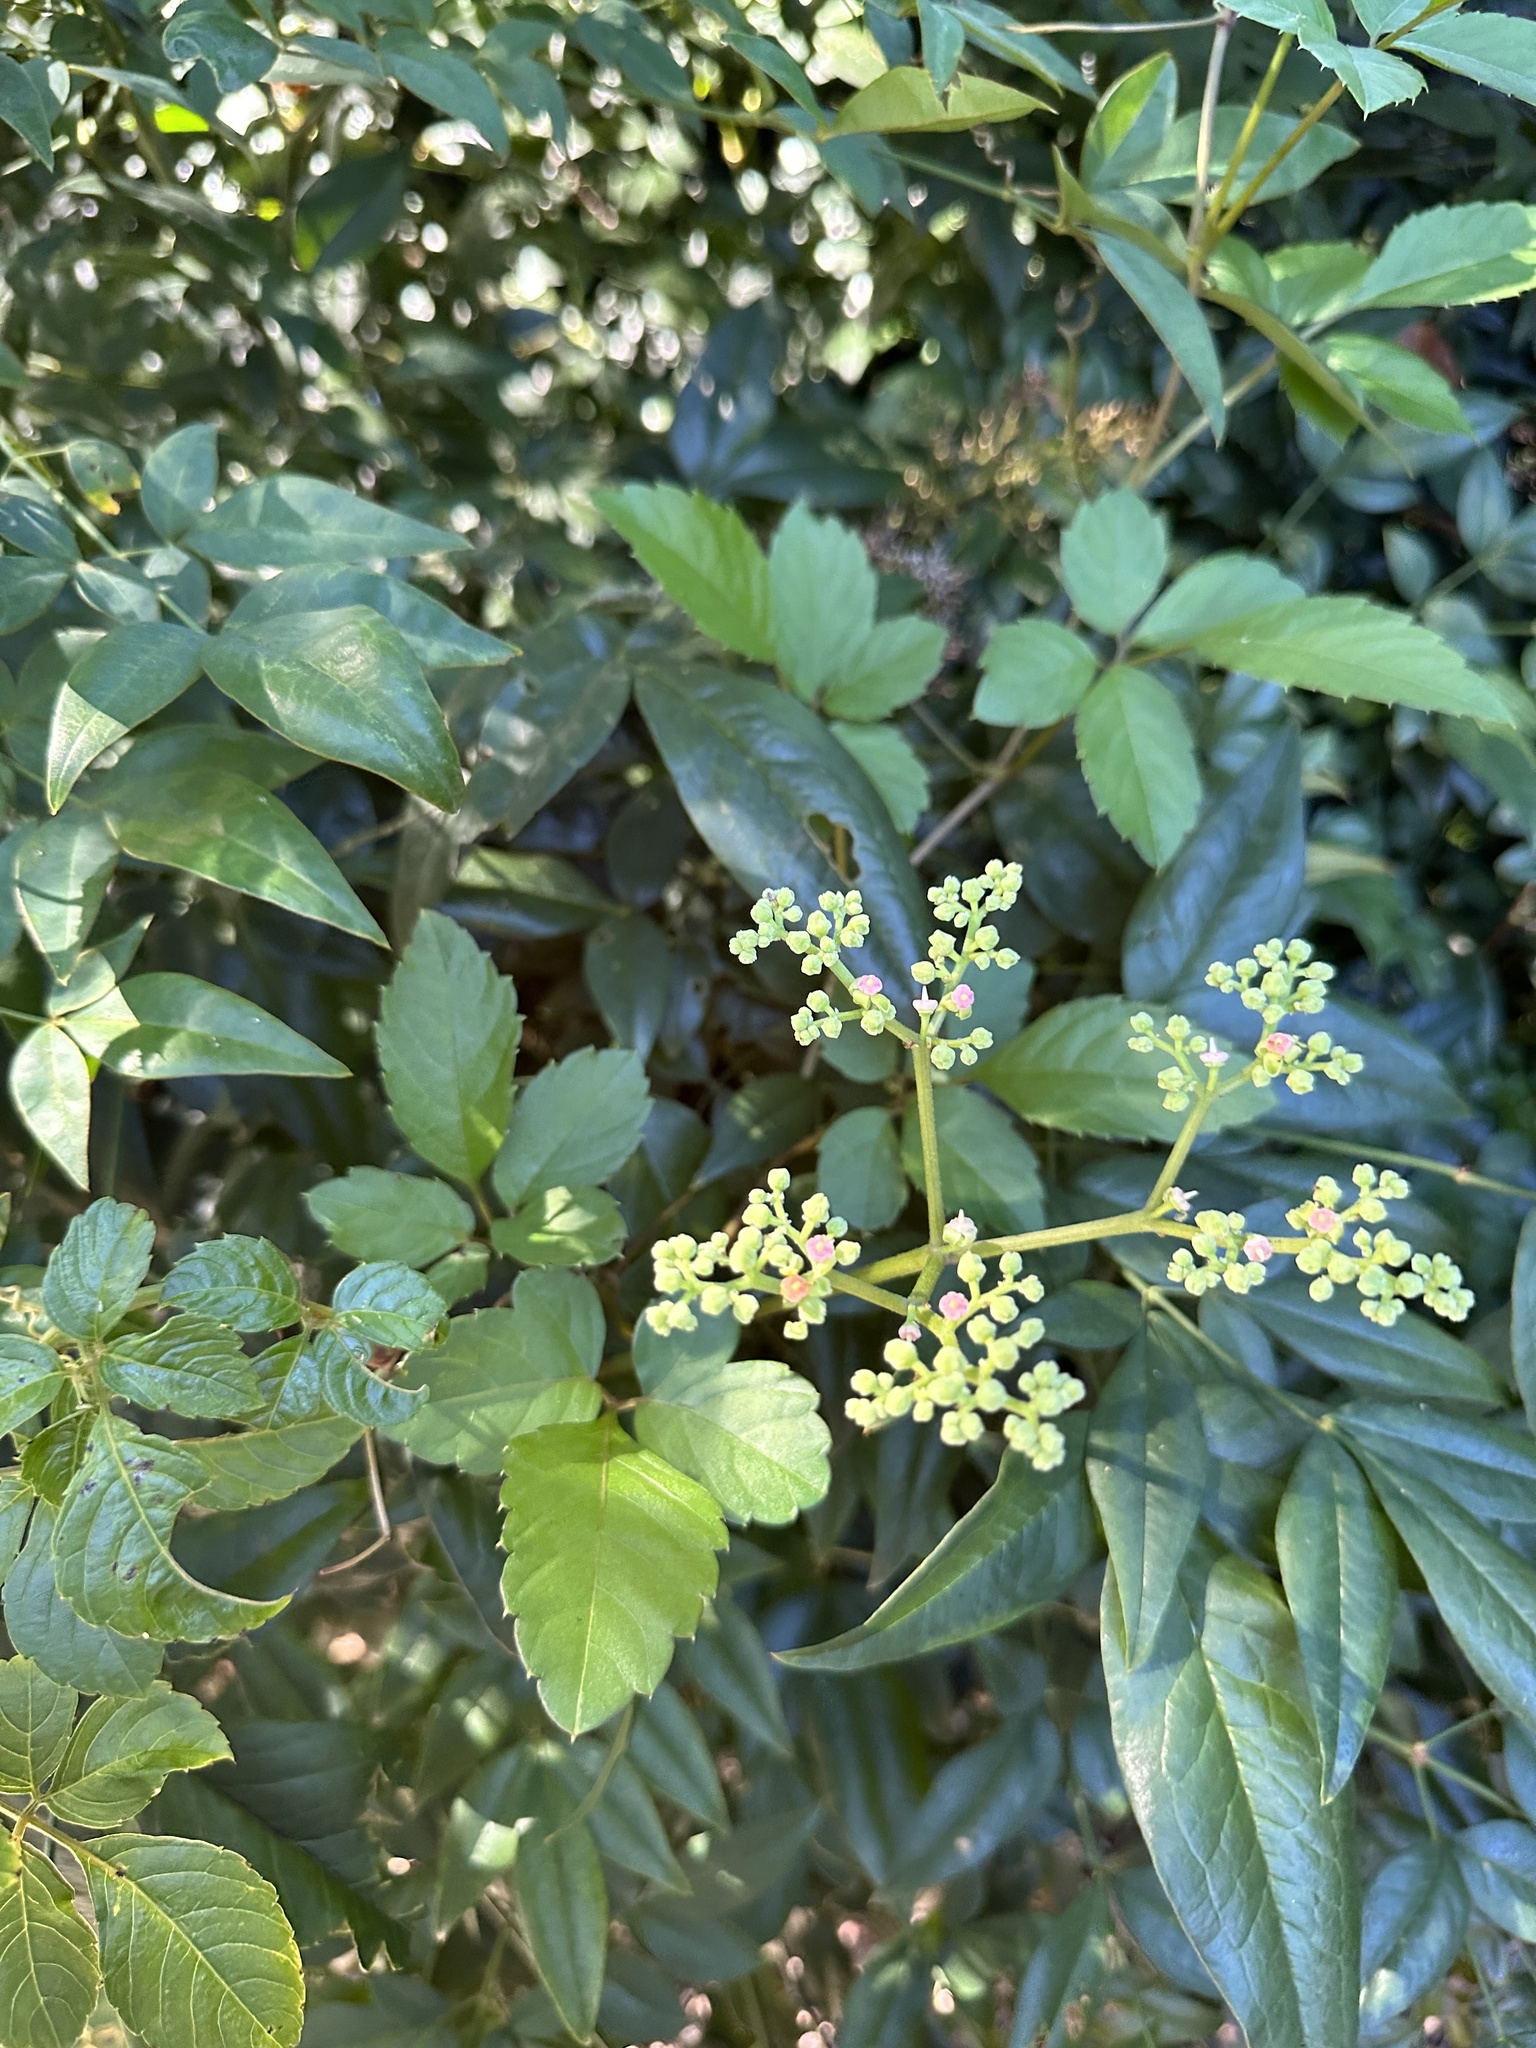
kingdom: Plantae
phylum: Tracheophyta
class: Magnoliopsida
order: Vitales
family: Vitaceae
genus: Causonis
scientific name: Causonis japonica
